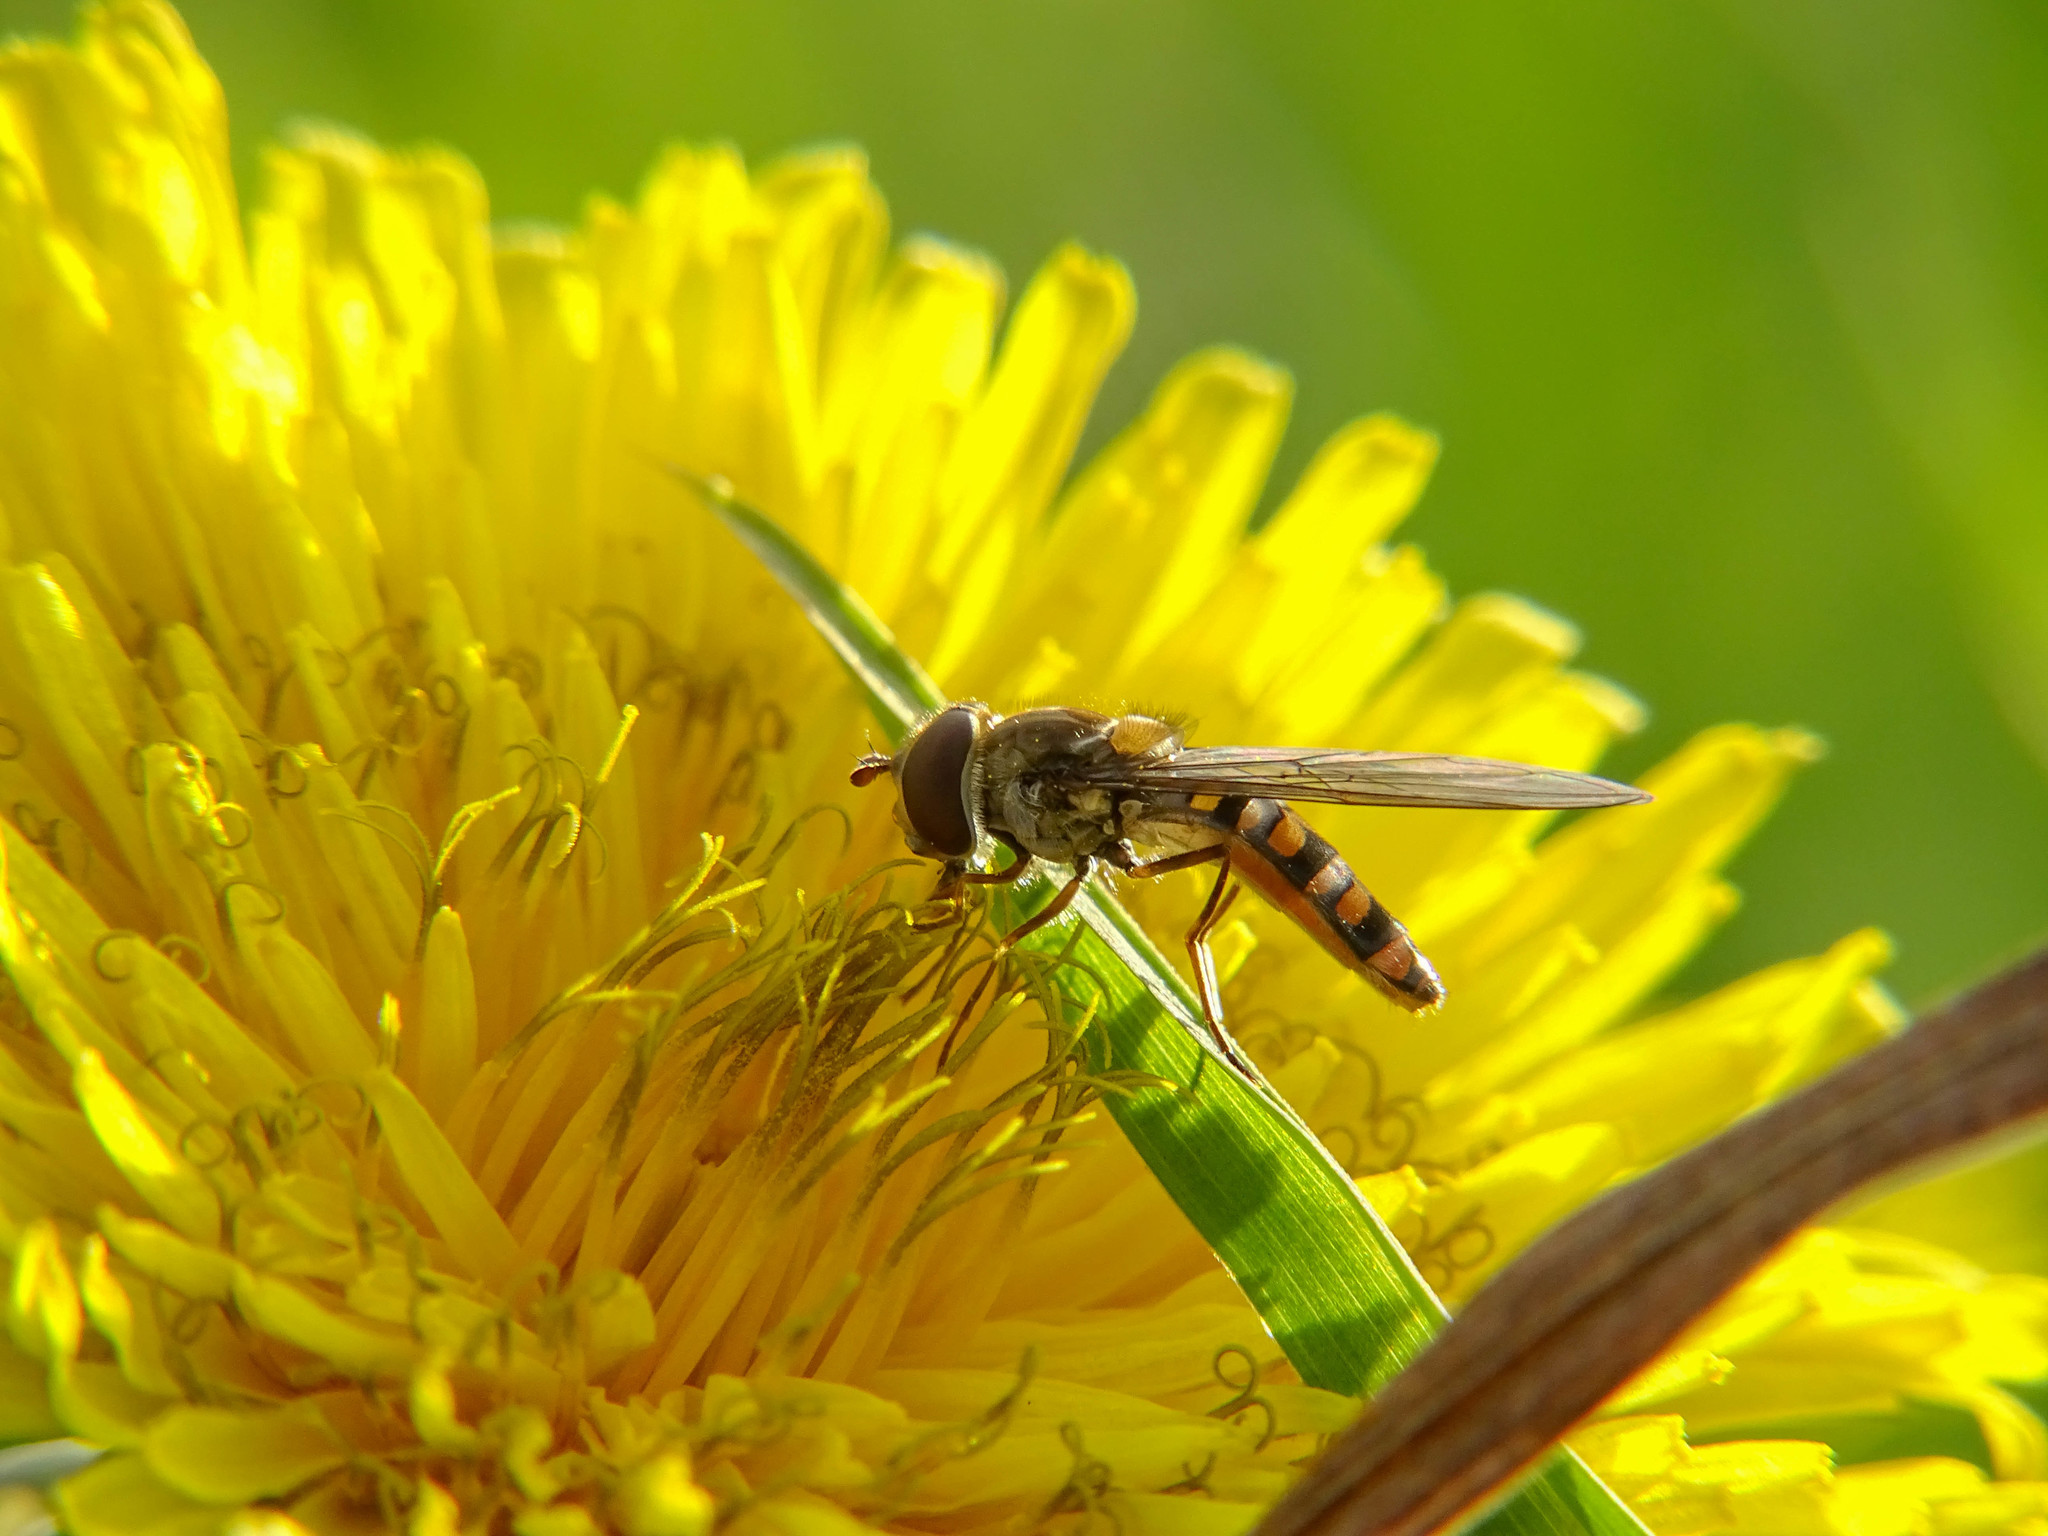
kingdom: Animalia
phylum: Arthropoda
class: Insecta
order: Diptera
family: Syrphidae
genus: Episyrphus
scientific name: Episyrphus balteatus
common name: Marmalade hoverfly
